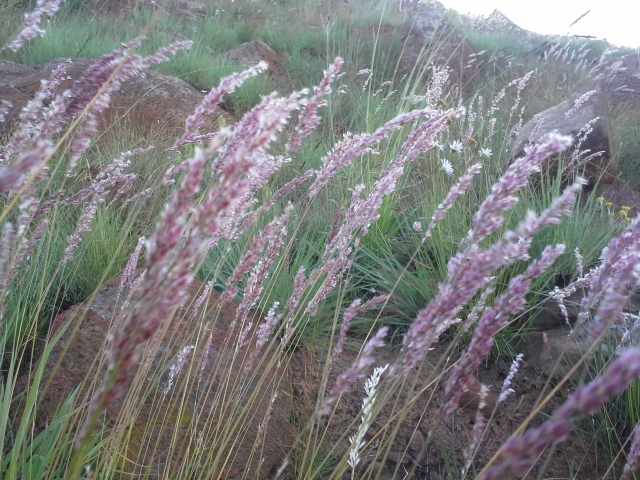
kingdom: Plantae
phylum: Tracheophyta
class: Liliopsida
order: Poales
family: Poaceae
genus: Melinis
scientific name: Melinis nerviglumis
